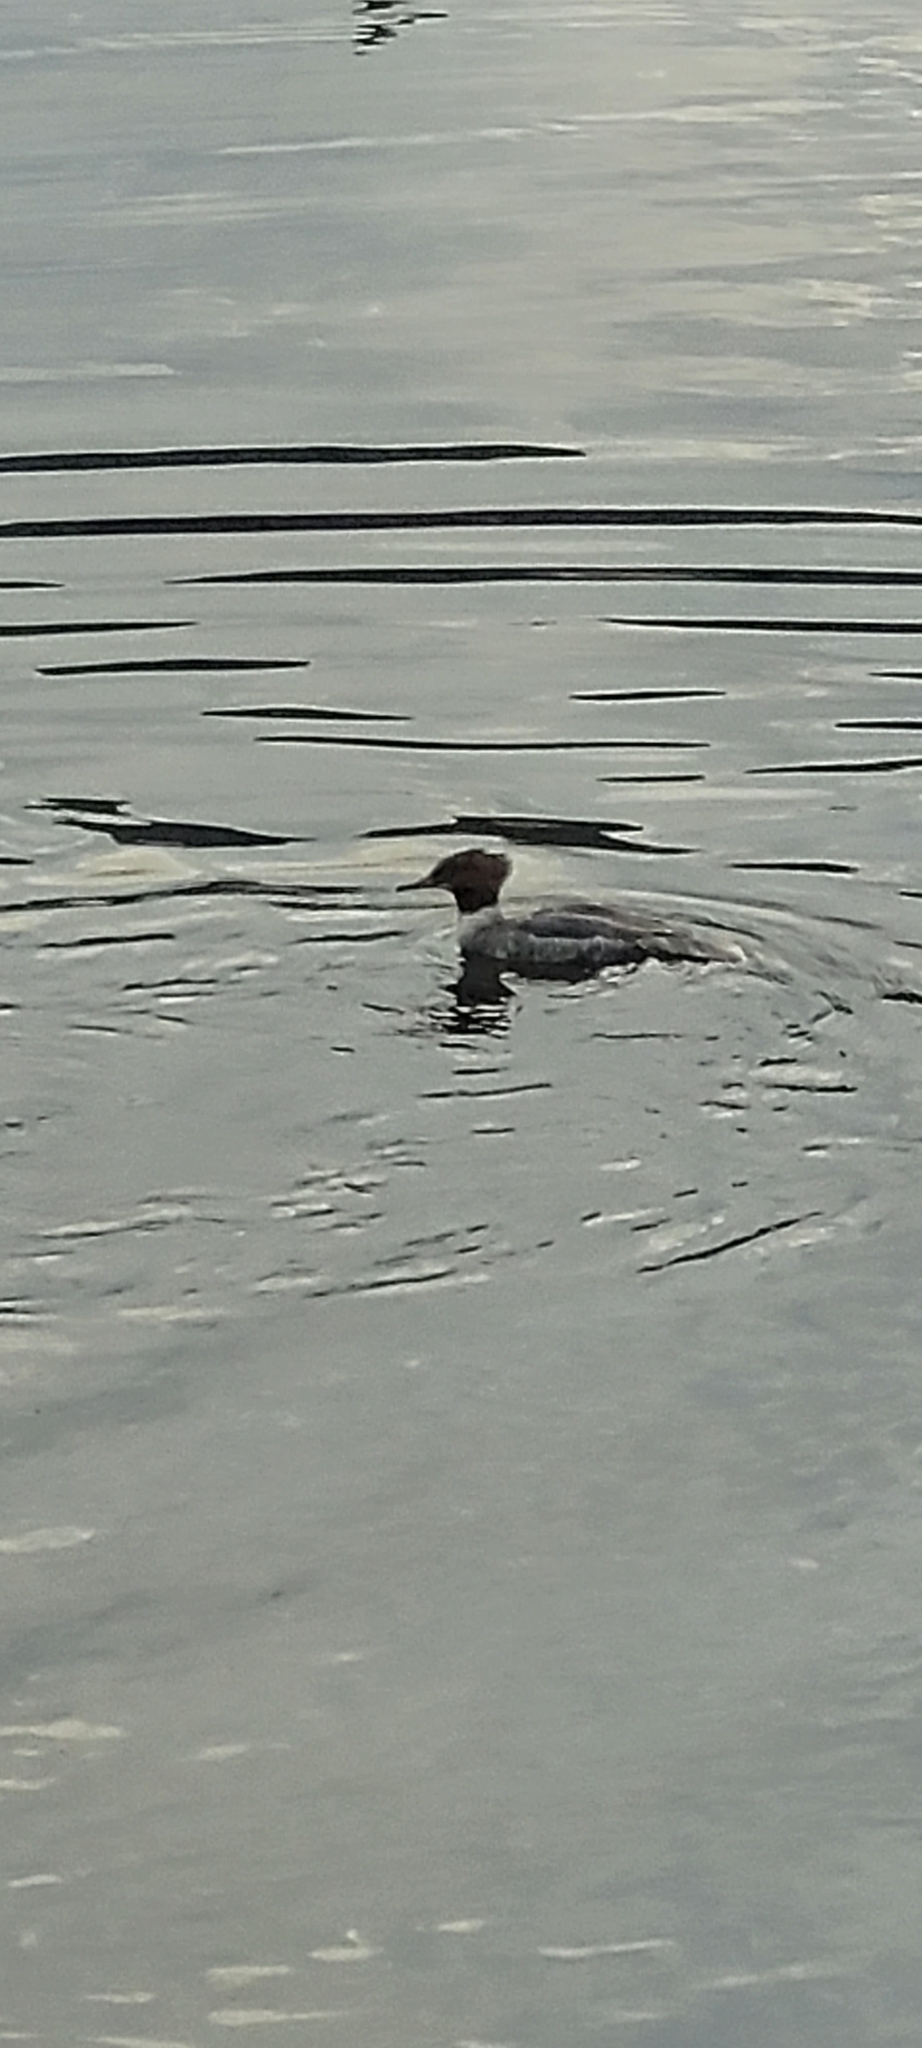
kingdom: Animalia
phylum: Chordata
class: Aves
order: Anseriformes
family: Anatidae
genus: Mergus
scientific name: Mergus merganser
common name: Common merganser
